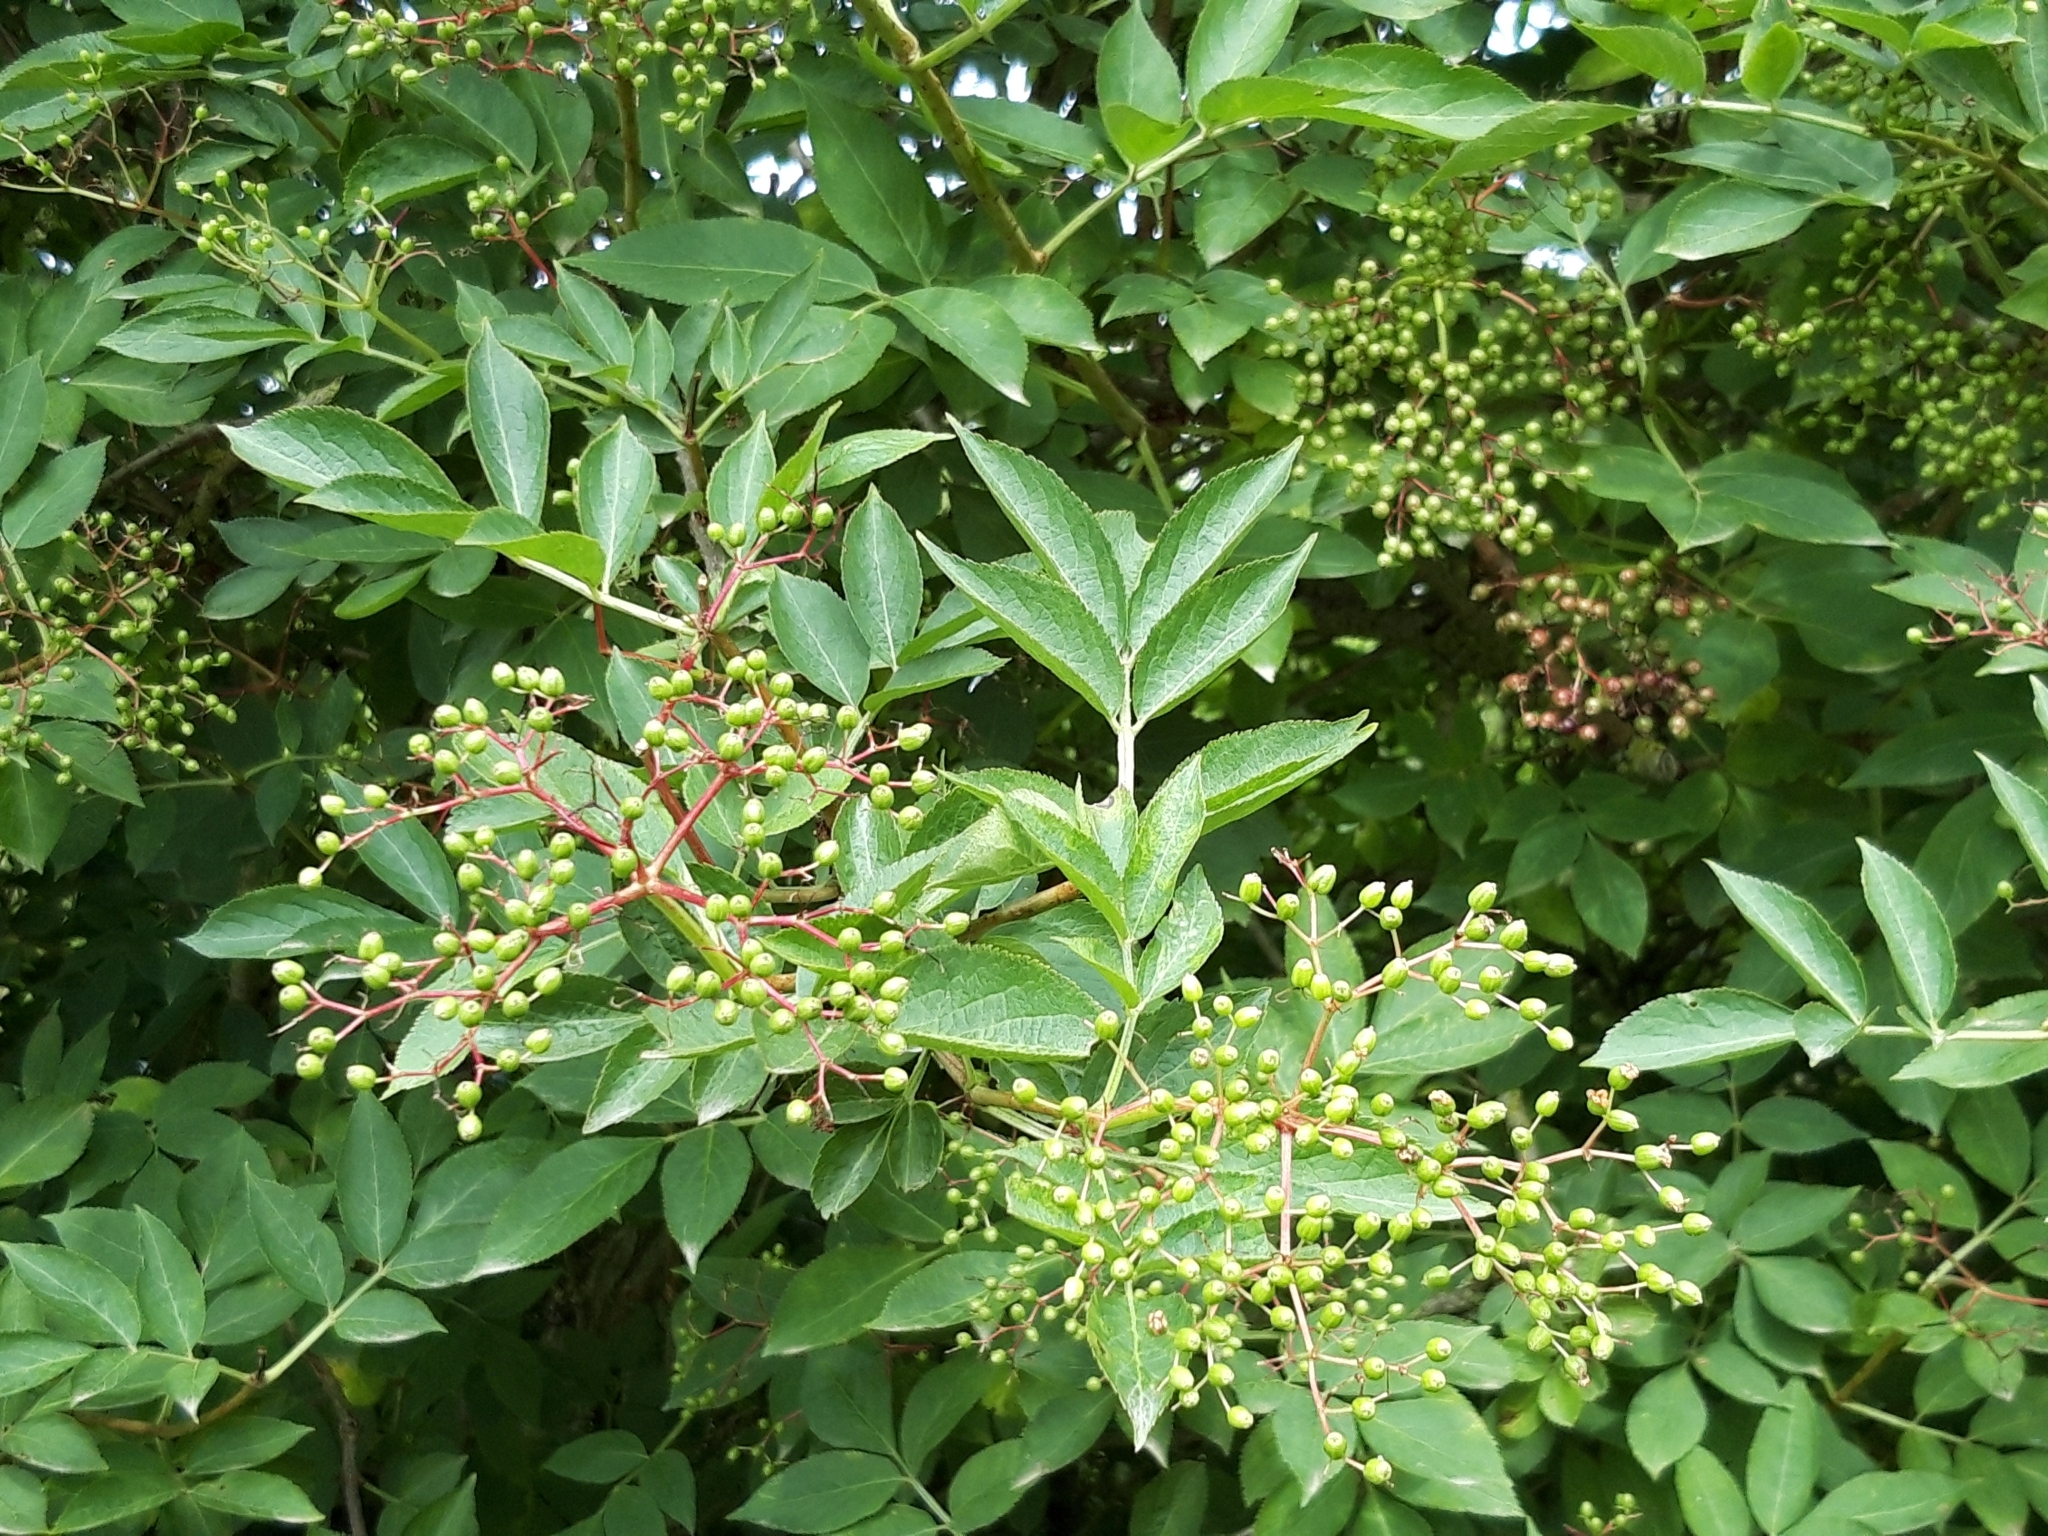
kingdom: Plantae
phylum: Tracheophyta
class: Magnoliopsida
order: Dipsacales
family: Viburnaceae
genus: Sambucus
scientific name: Sambucus nigra
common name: Elder
